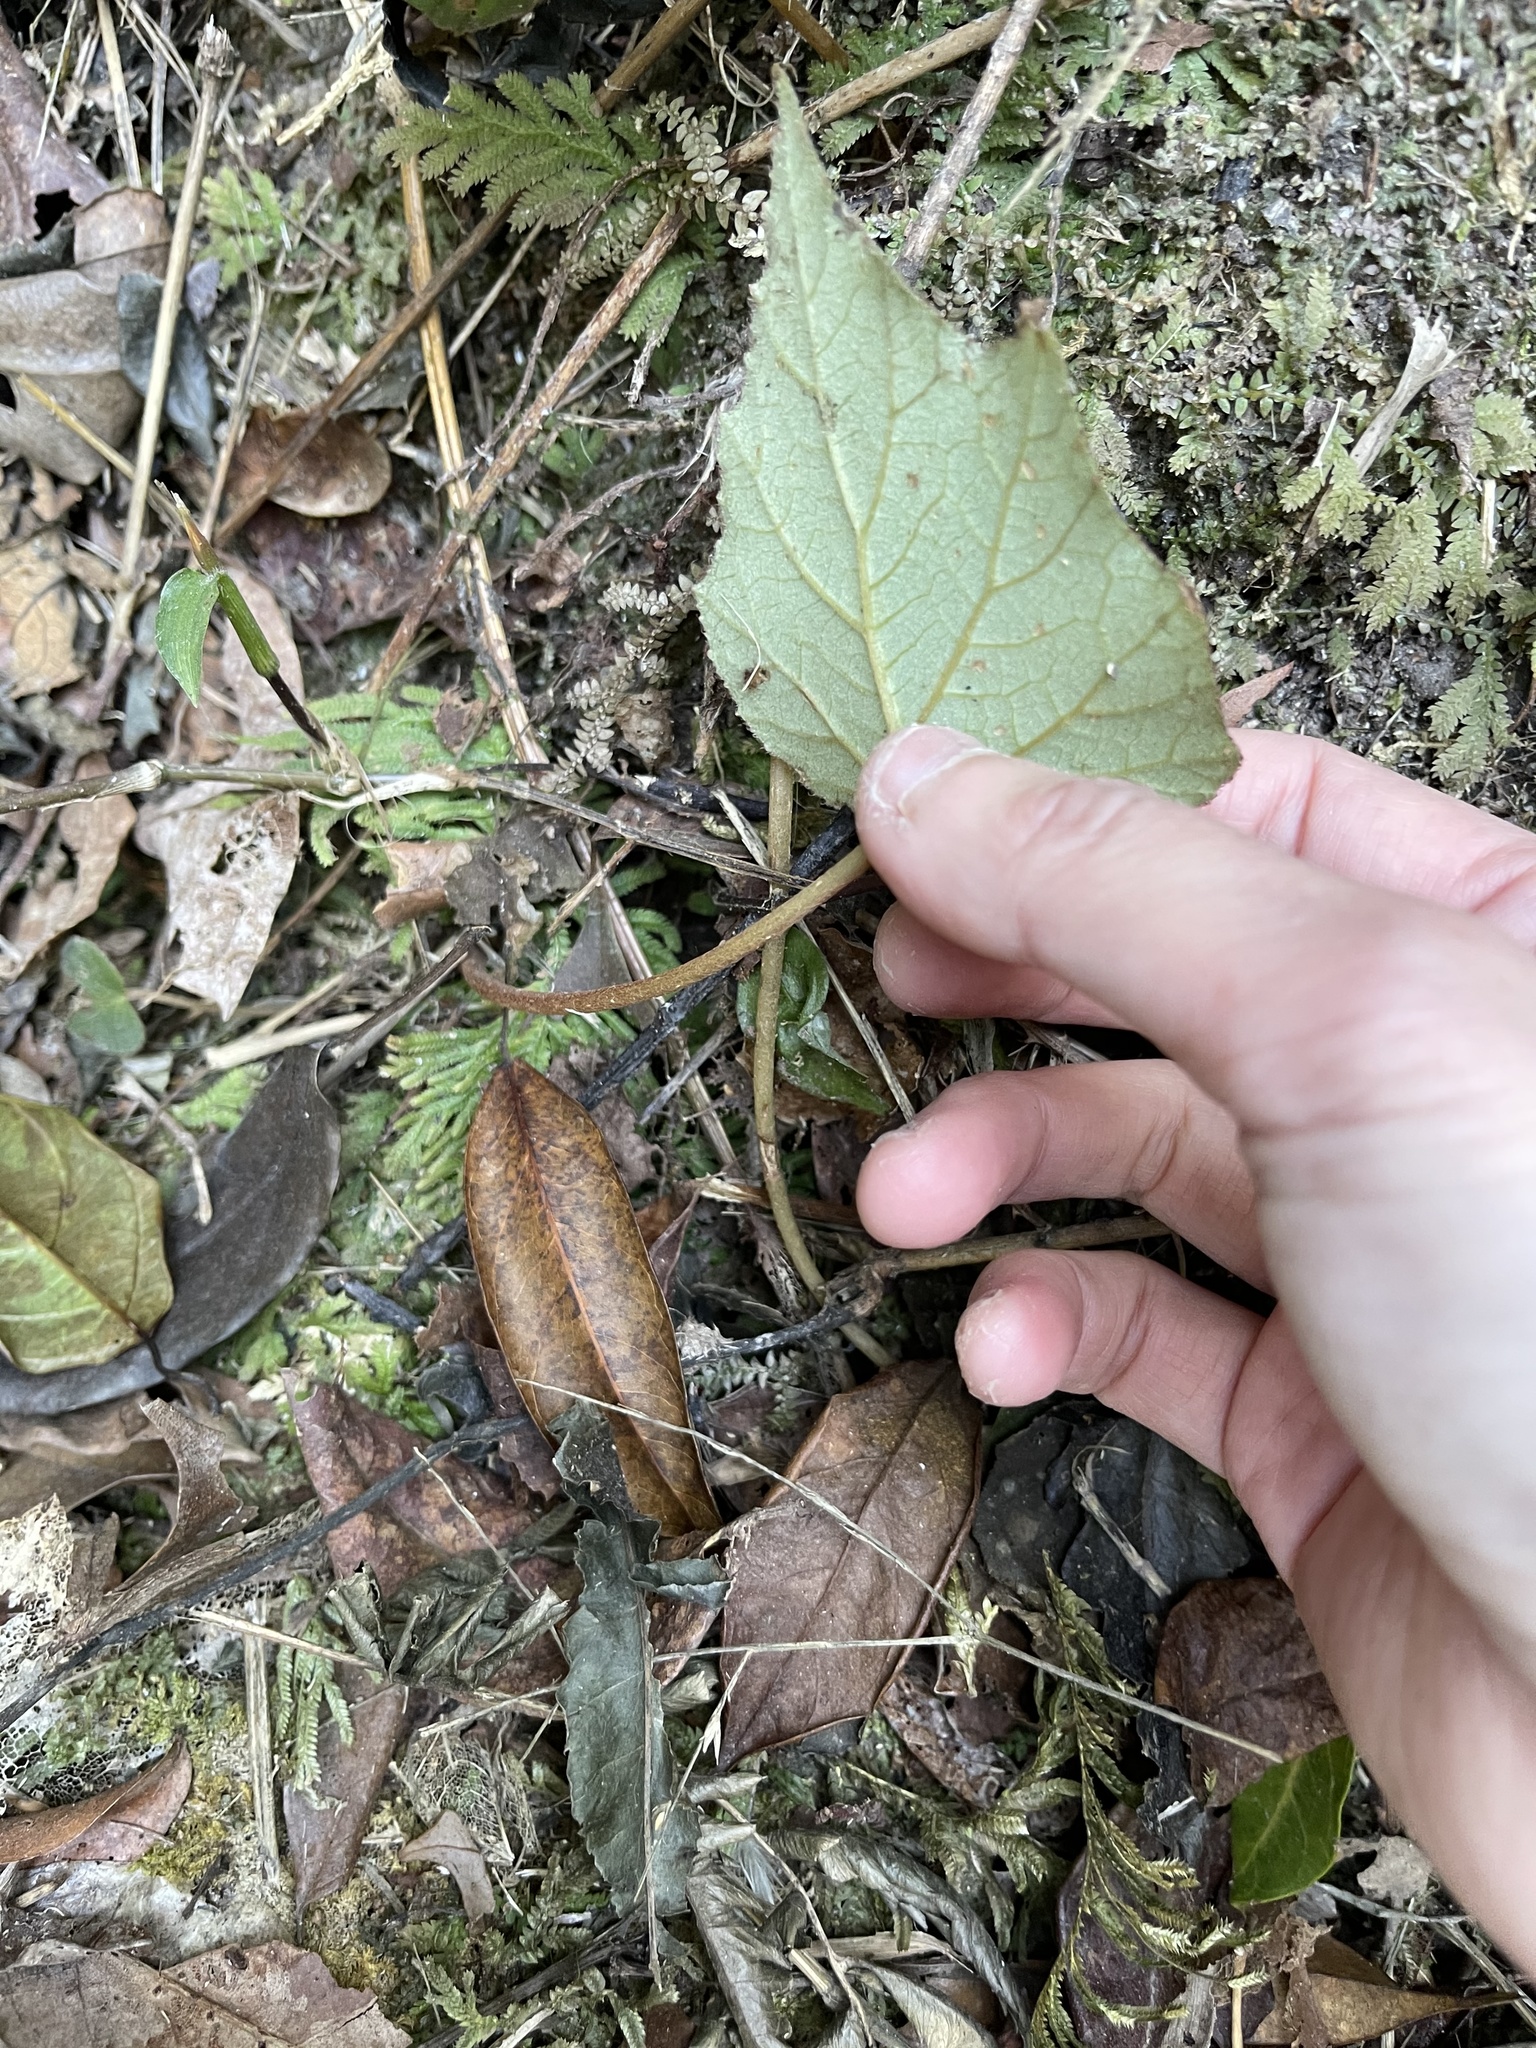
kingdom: Plantae
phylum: Tracheophyta
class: Magnoliopsida
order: Cucurbitales
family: Begoniaceae
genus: Begonia
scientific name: Begonia palmata
